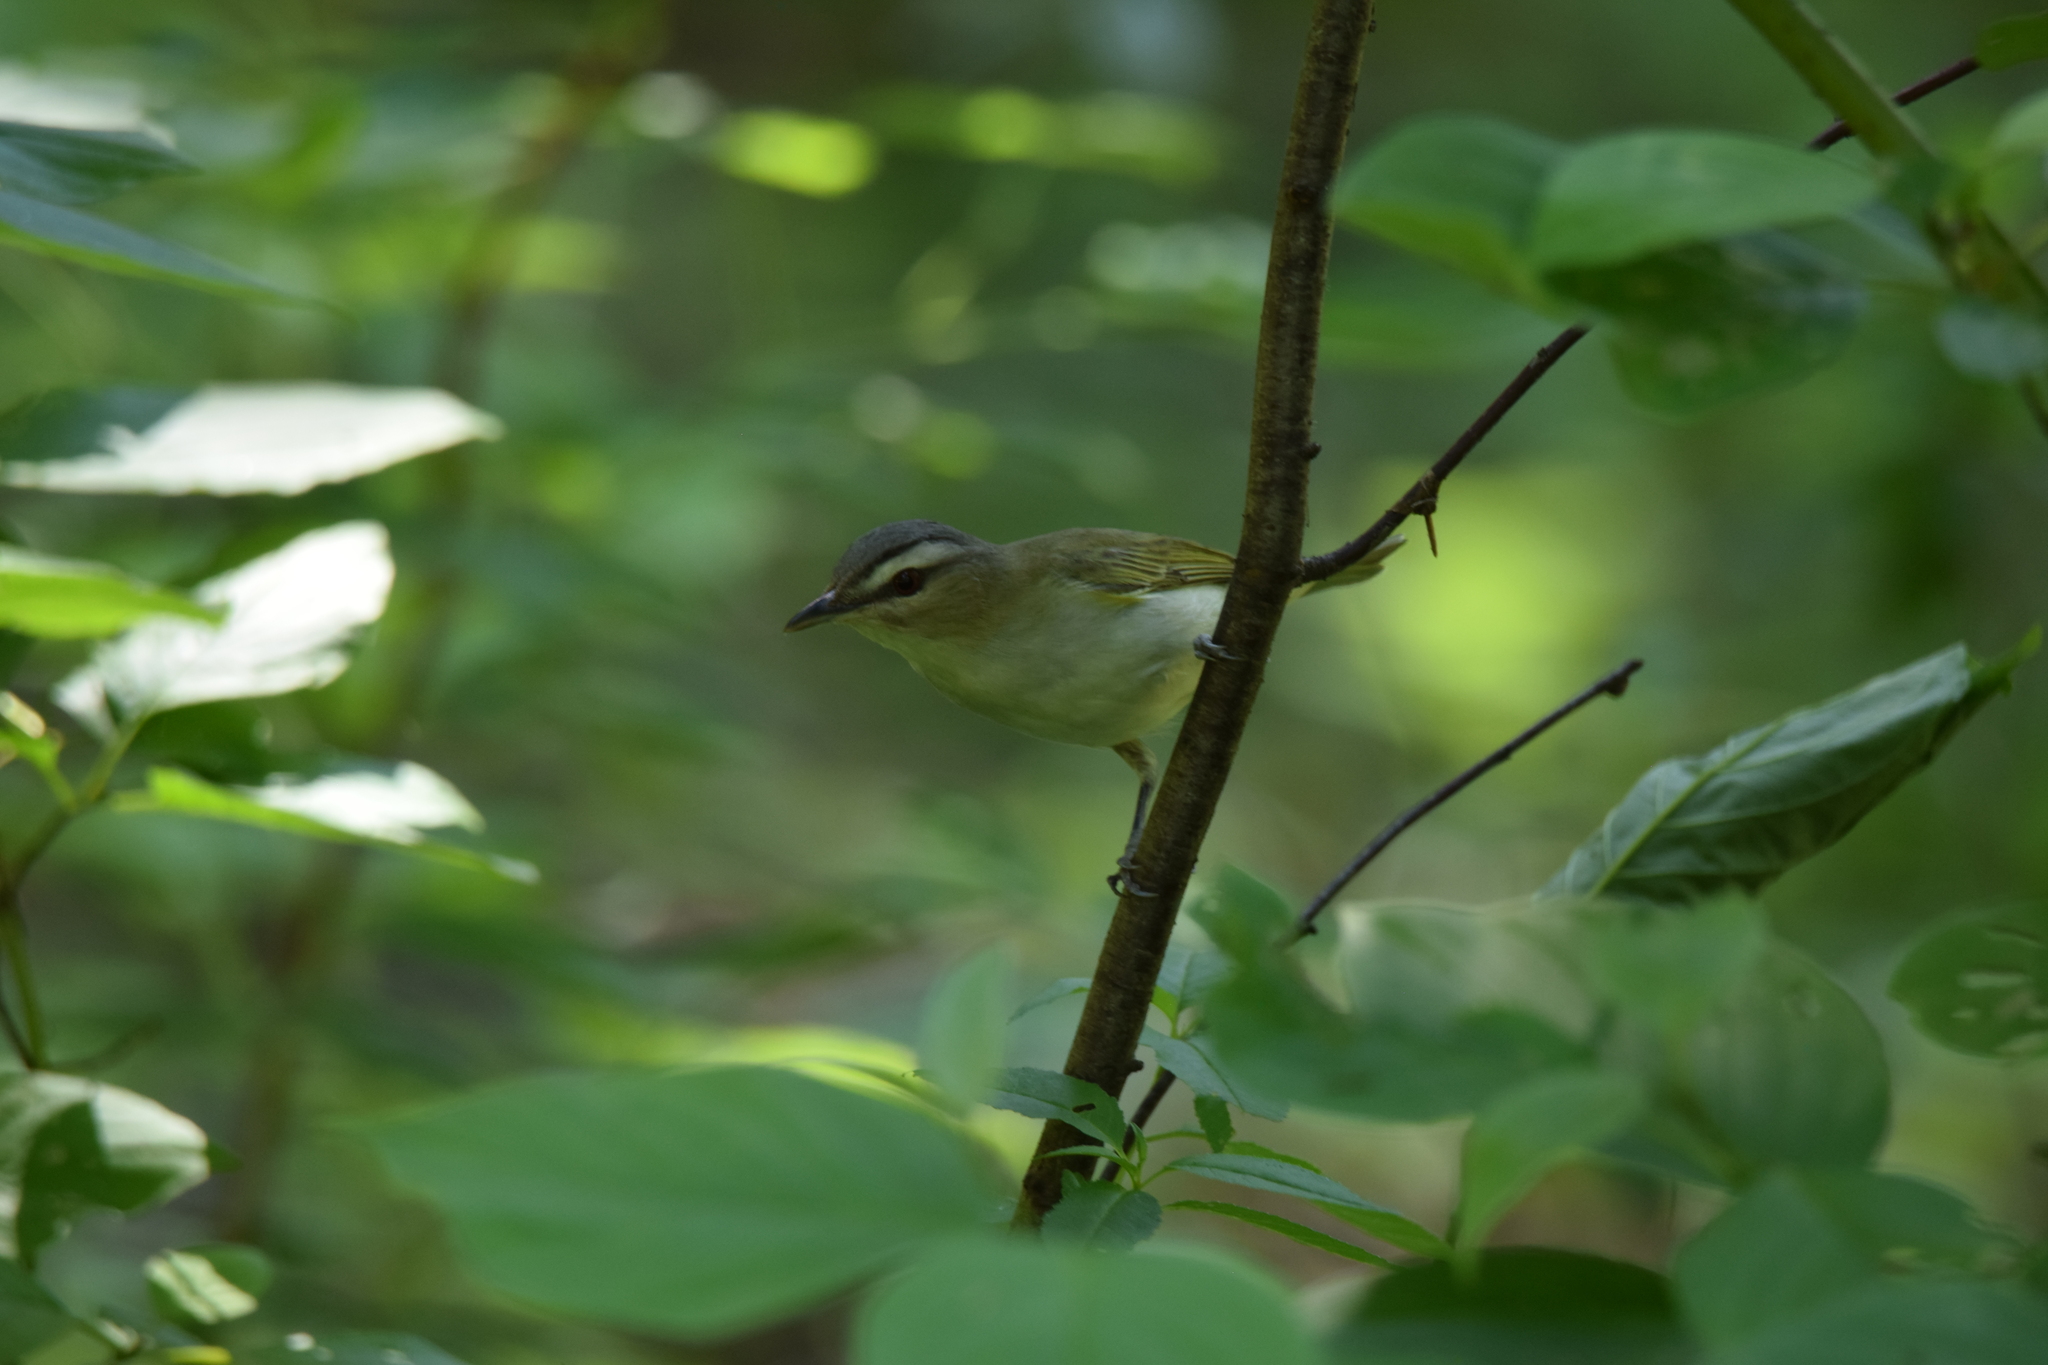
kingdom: Animalia
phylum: Chordata
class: Aves
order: Passeriformes
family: Vireonidae
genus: Vireo
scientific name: Vireo olivaceus
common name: Red-eyed vireo
